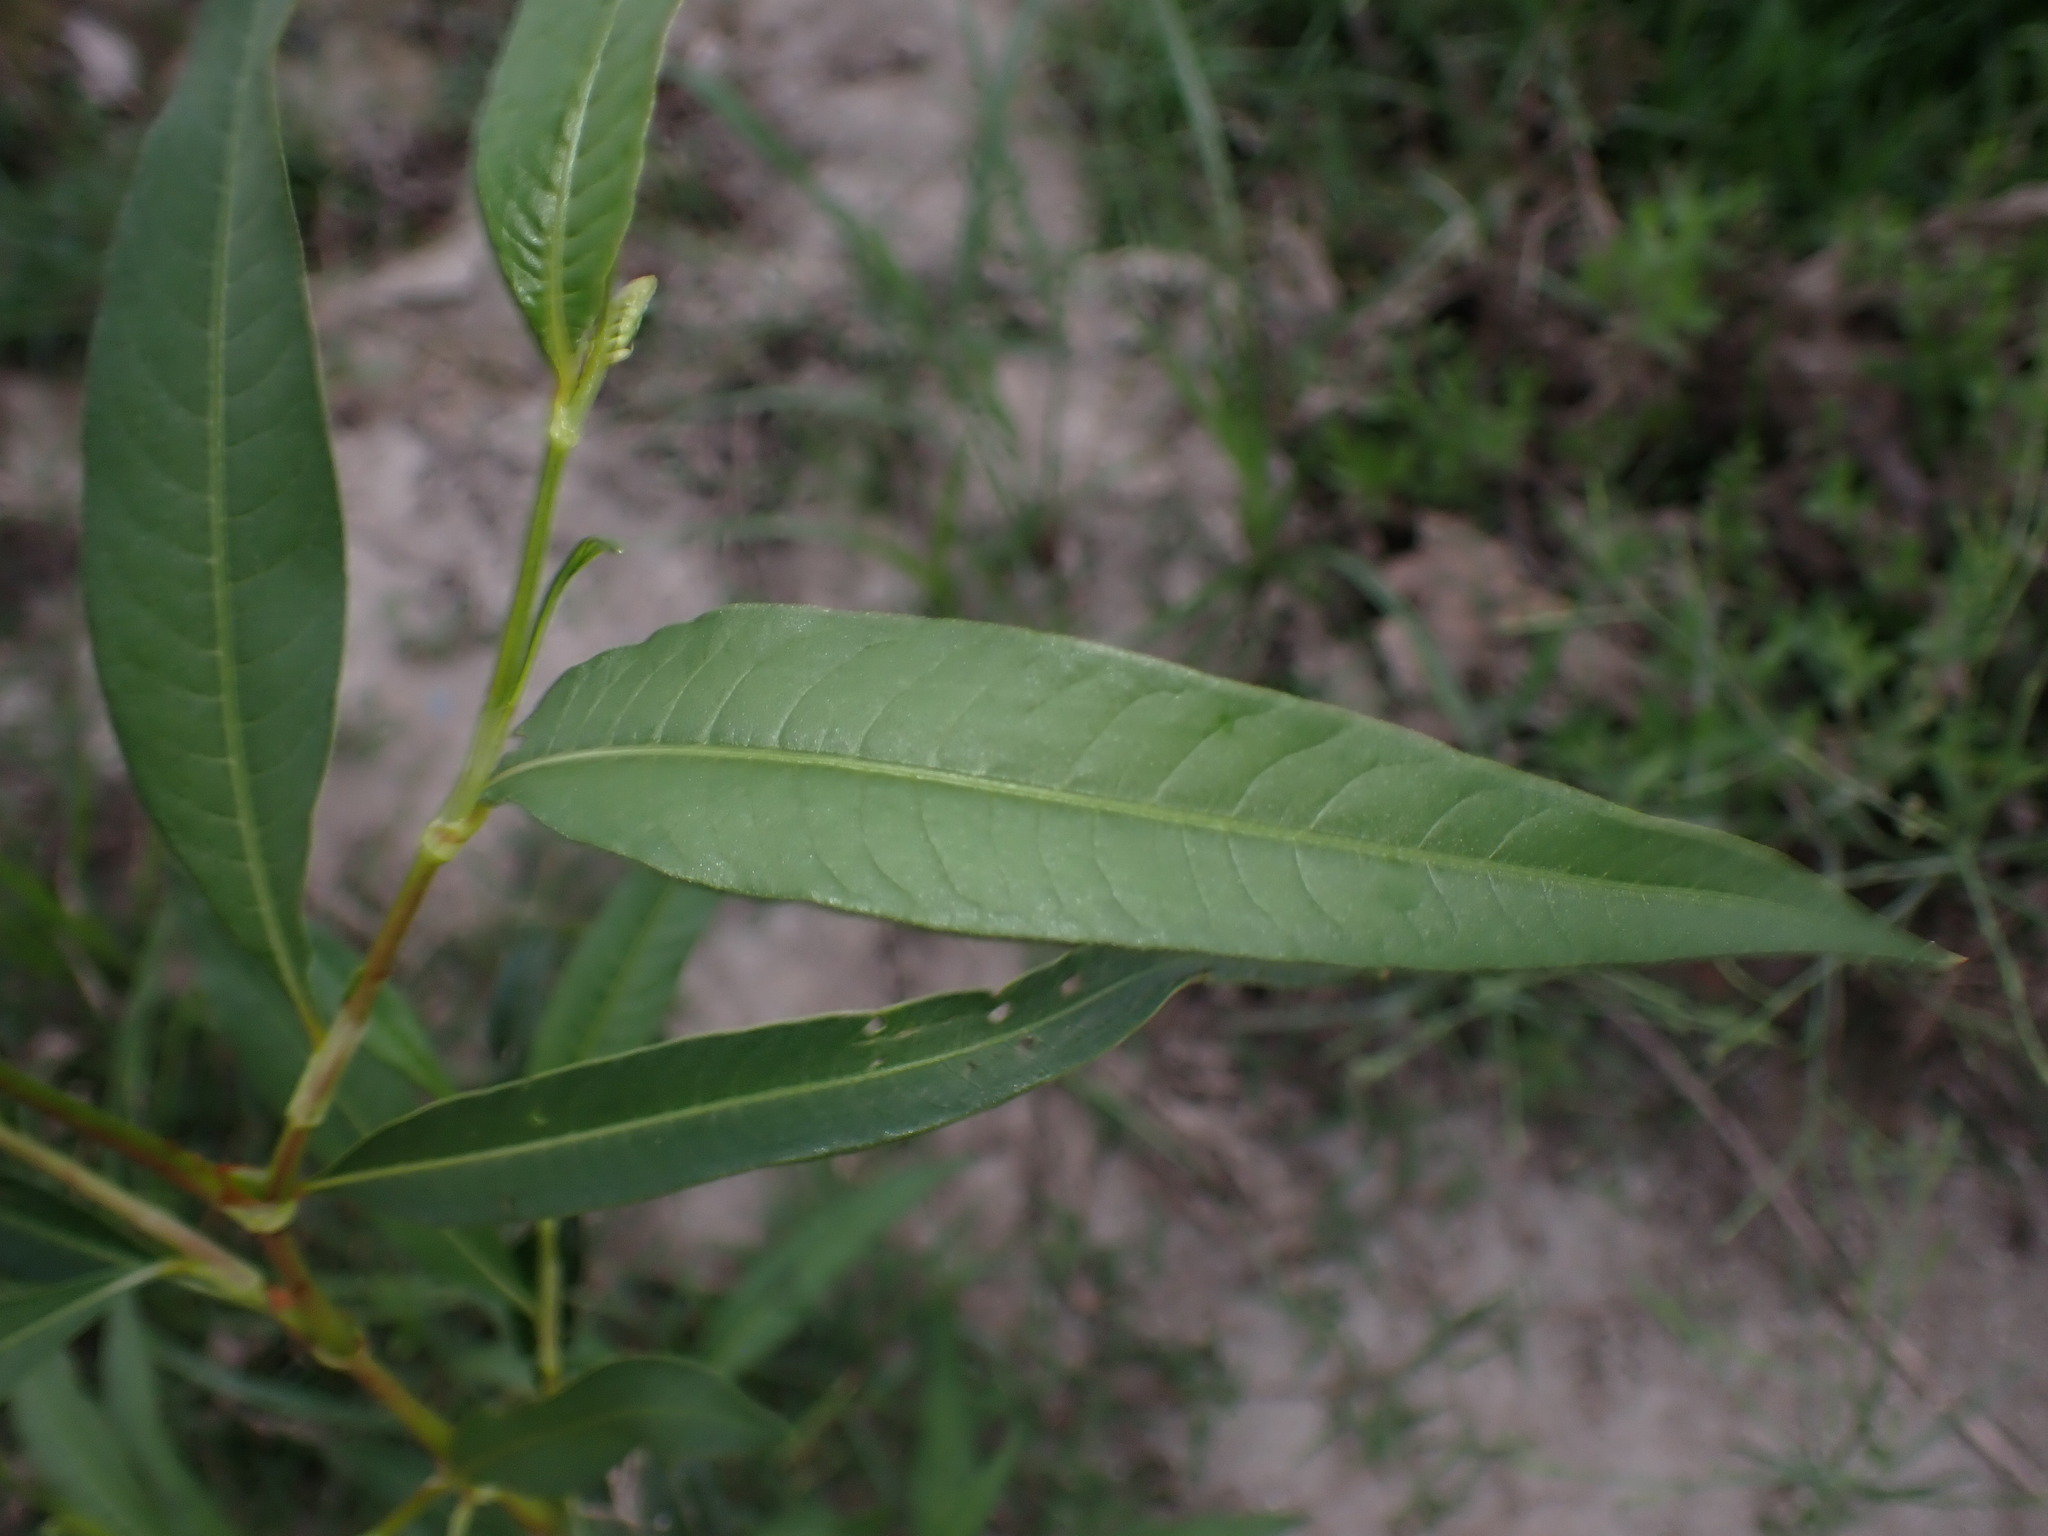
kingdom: Plantae
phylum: Tracheophyta
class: Magnoliopsida
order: Caryophyllales
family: Polygonaceae
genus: Persicaria
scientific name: Persicaria lapathifolia
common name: Curlytop knotweed
